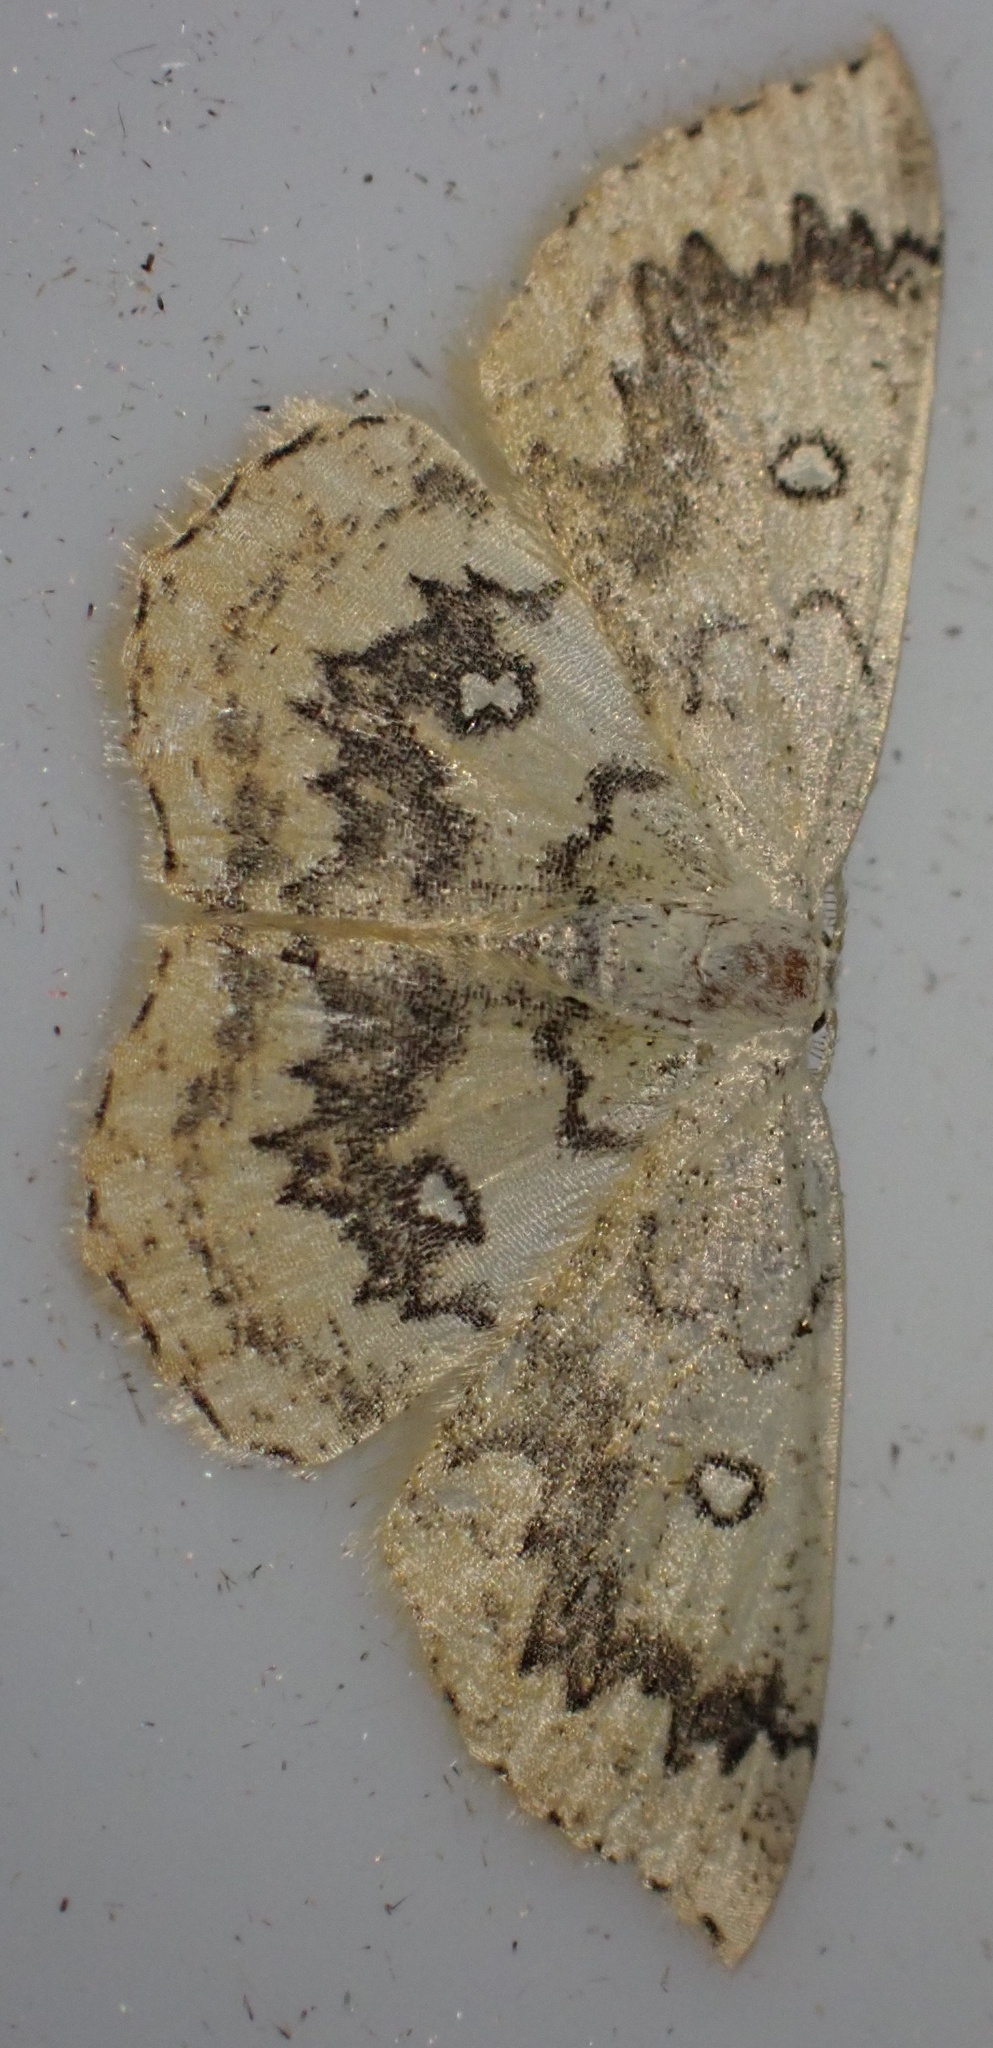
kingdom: Animalia
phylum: Arthropoda
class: Insecta
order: Lepidoptera
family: Geometridae
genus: Cyclophora
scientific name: Cyclophora annularia
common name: Mocha
